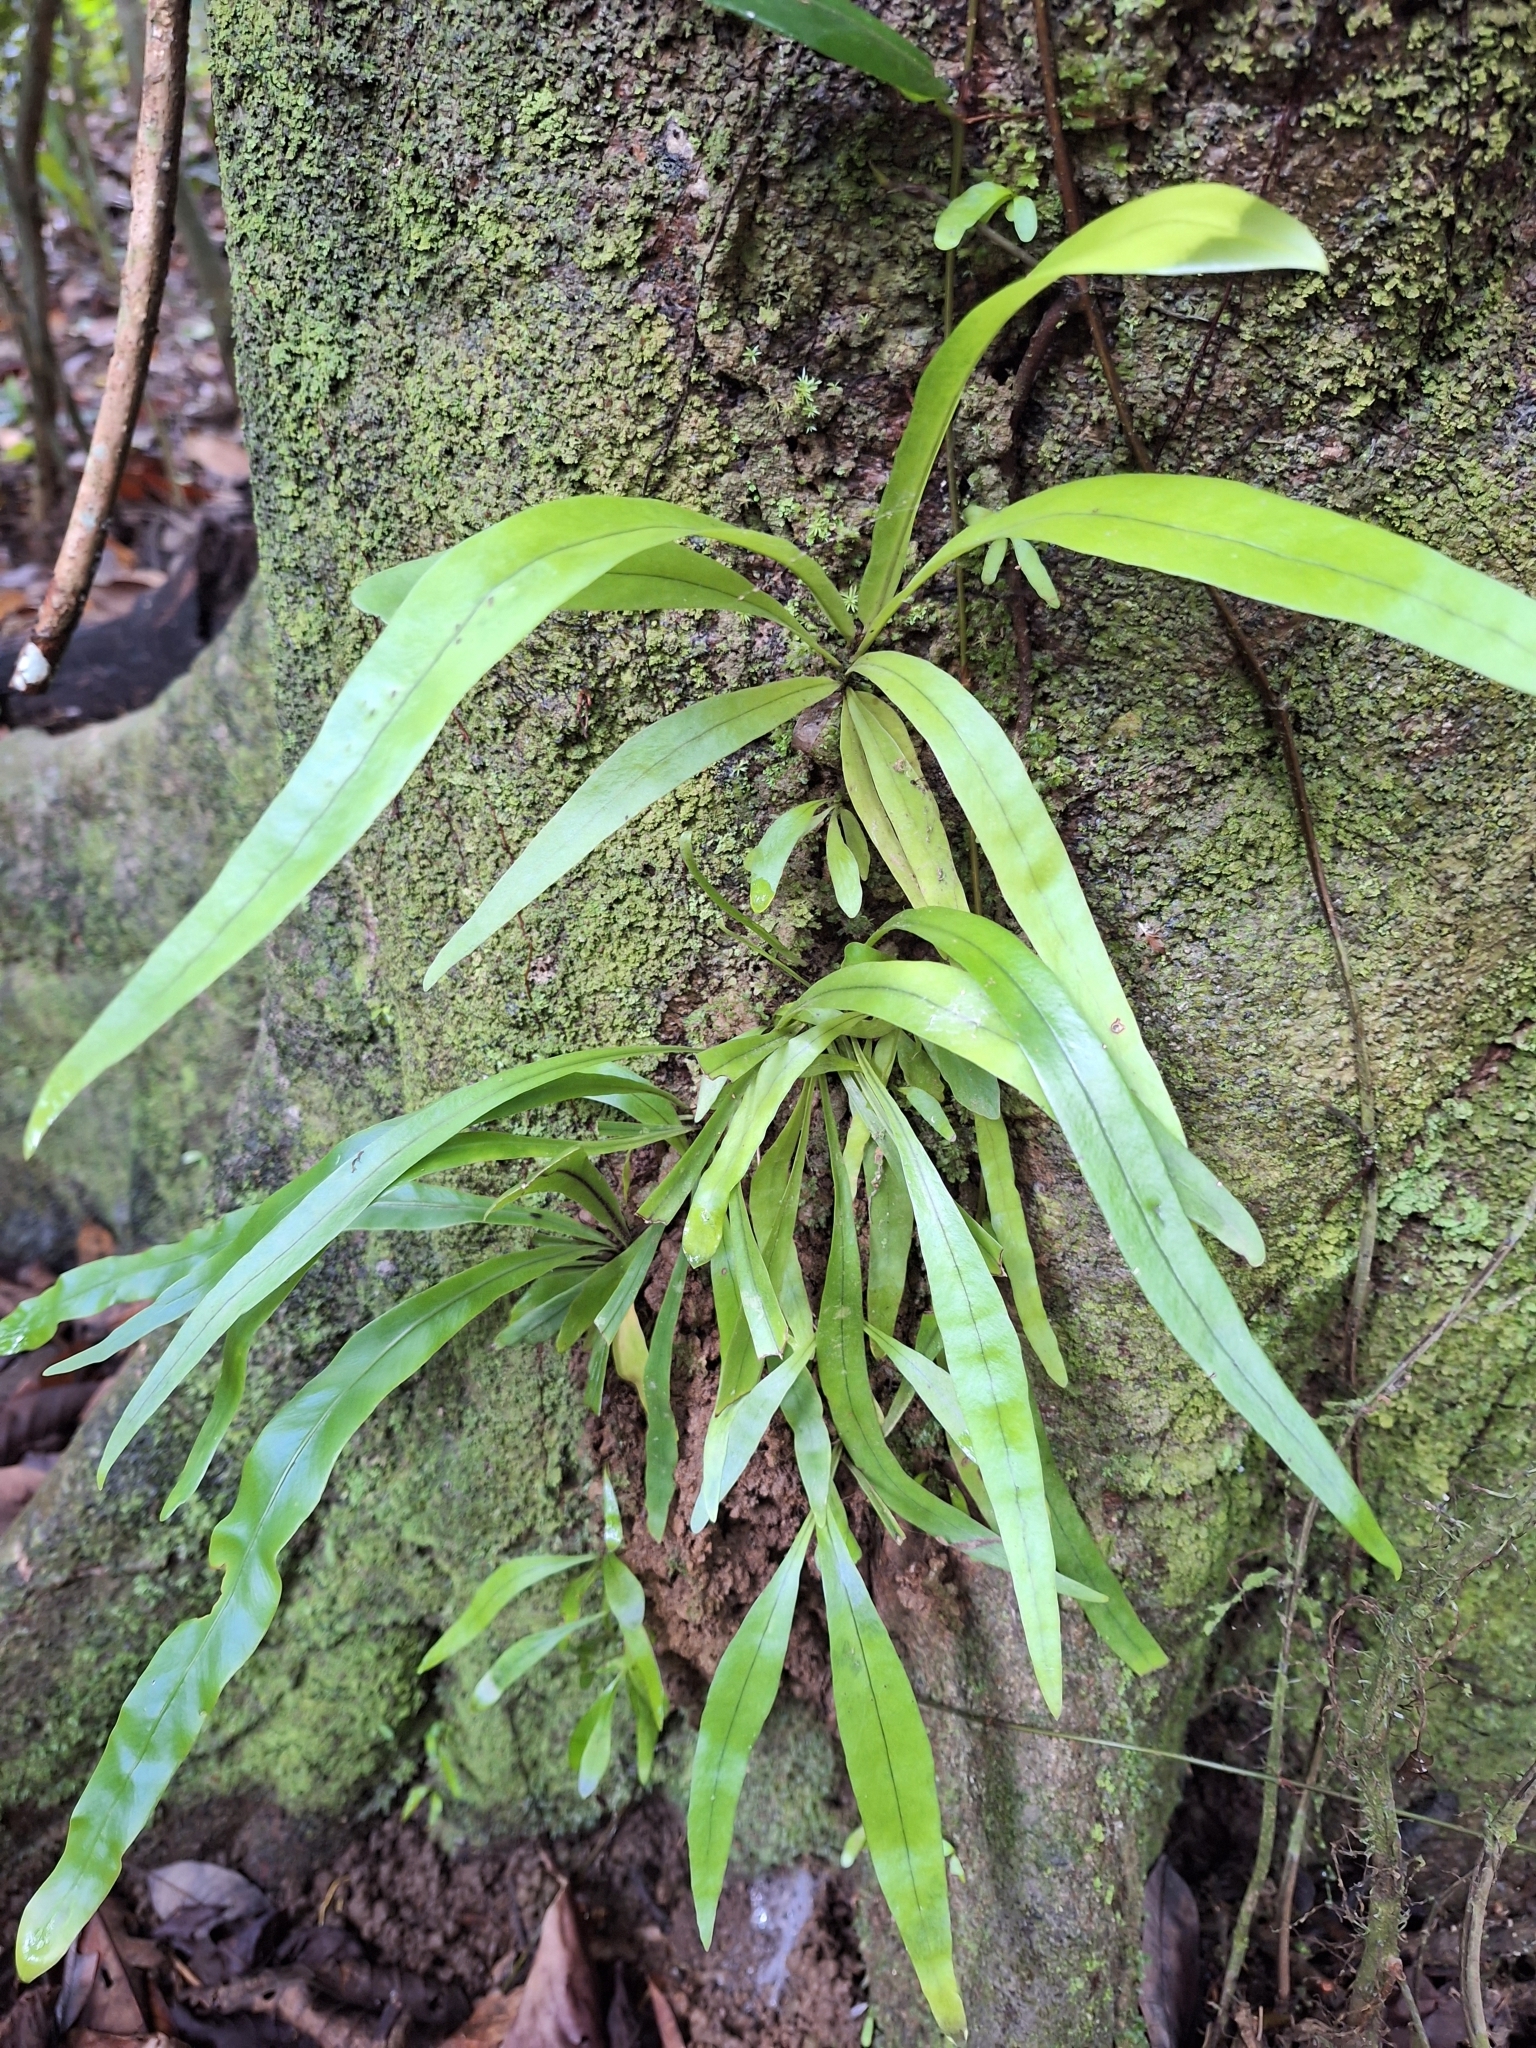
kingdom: Plantae
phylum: Tracheophyta
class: Polypodiopsida
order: Polypodiales
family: Polypodiaceae
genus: Pyrrosia
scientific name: Pyrrosia longifolia
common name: Long-leaved felt fern
